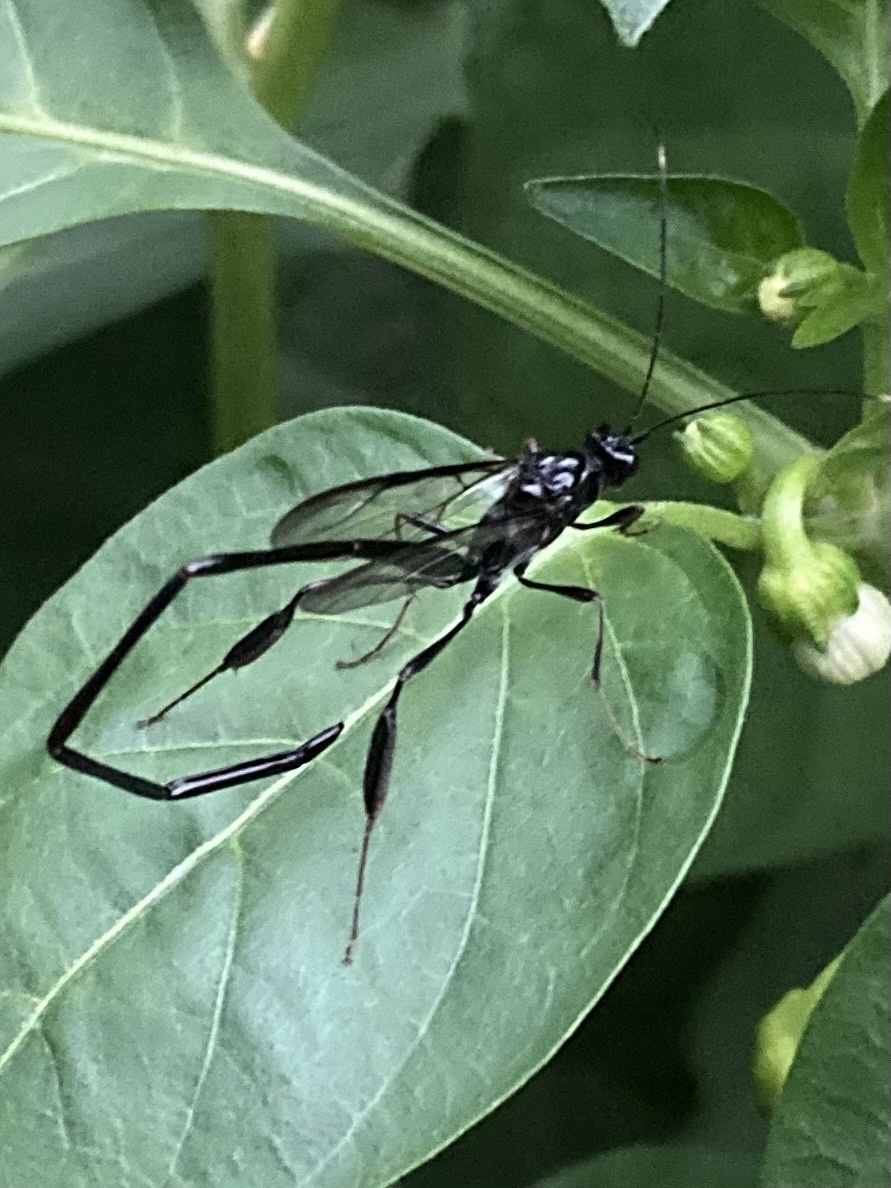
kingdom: Animalia
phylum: Arthropoda
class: Insecta
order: Hymenoptera
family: Pelecinidae
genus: Pelecinus
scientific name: Pelecinus polyturator
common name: American pelecinid wasp
